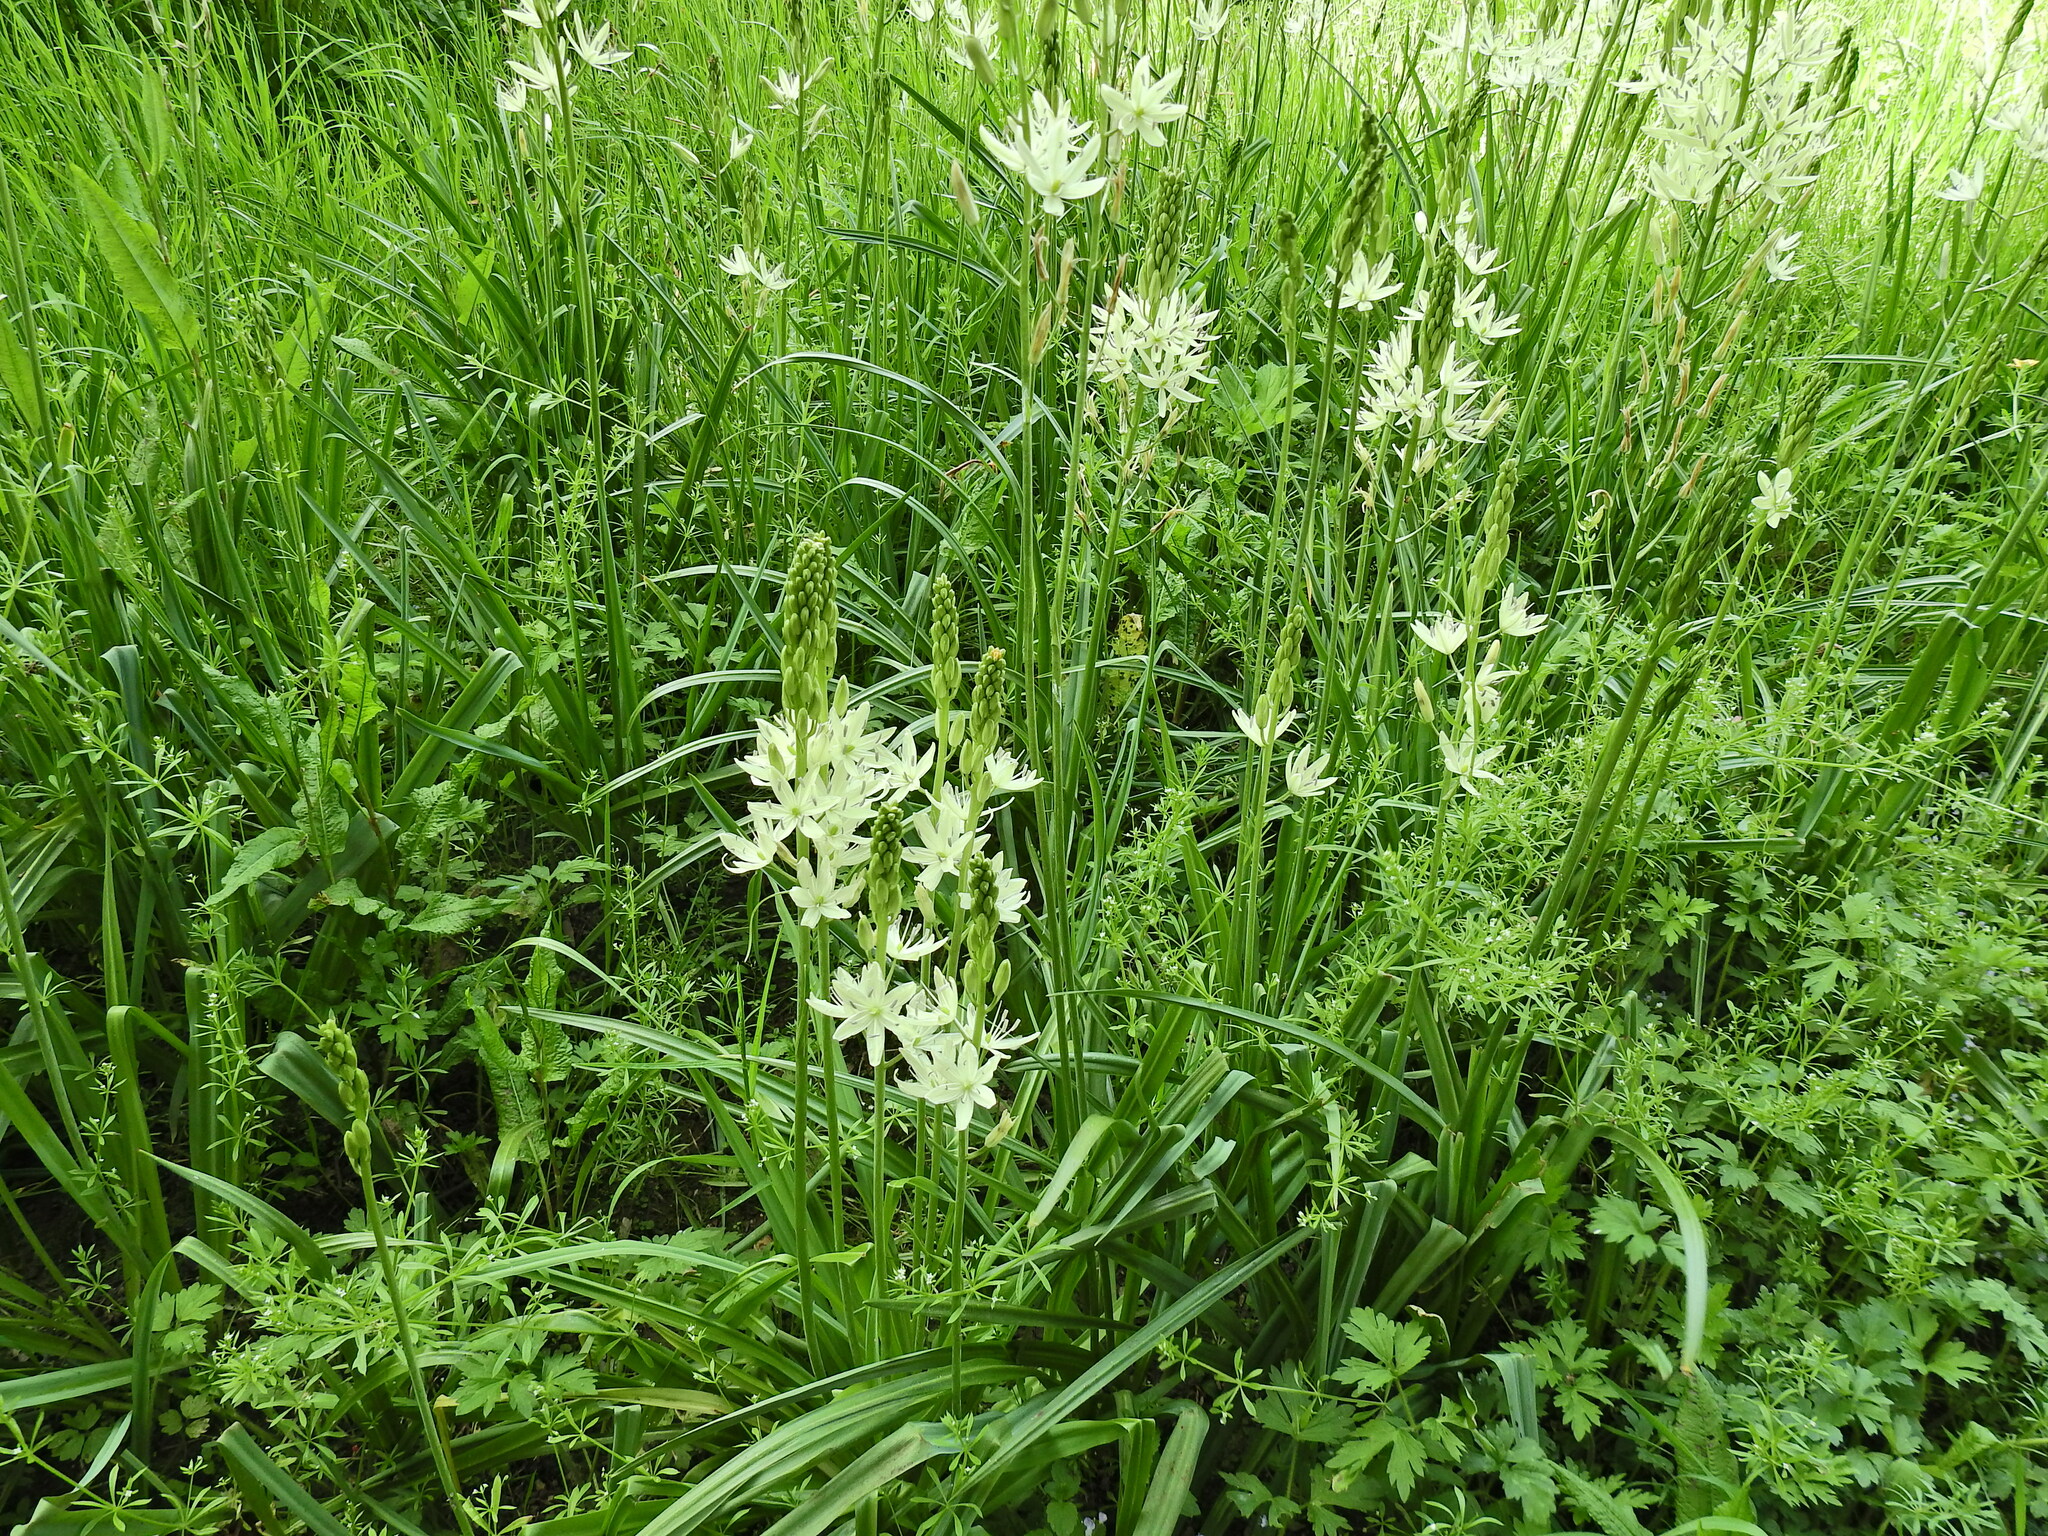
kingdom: Plantae
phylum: Tracheophyta
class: Liliopsida
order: Asparagales
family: Asparagaceae
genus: Camassia
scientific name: Camassia leichtlinii
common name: Leichtlin's camas
